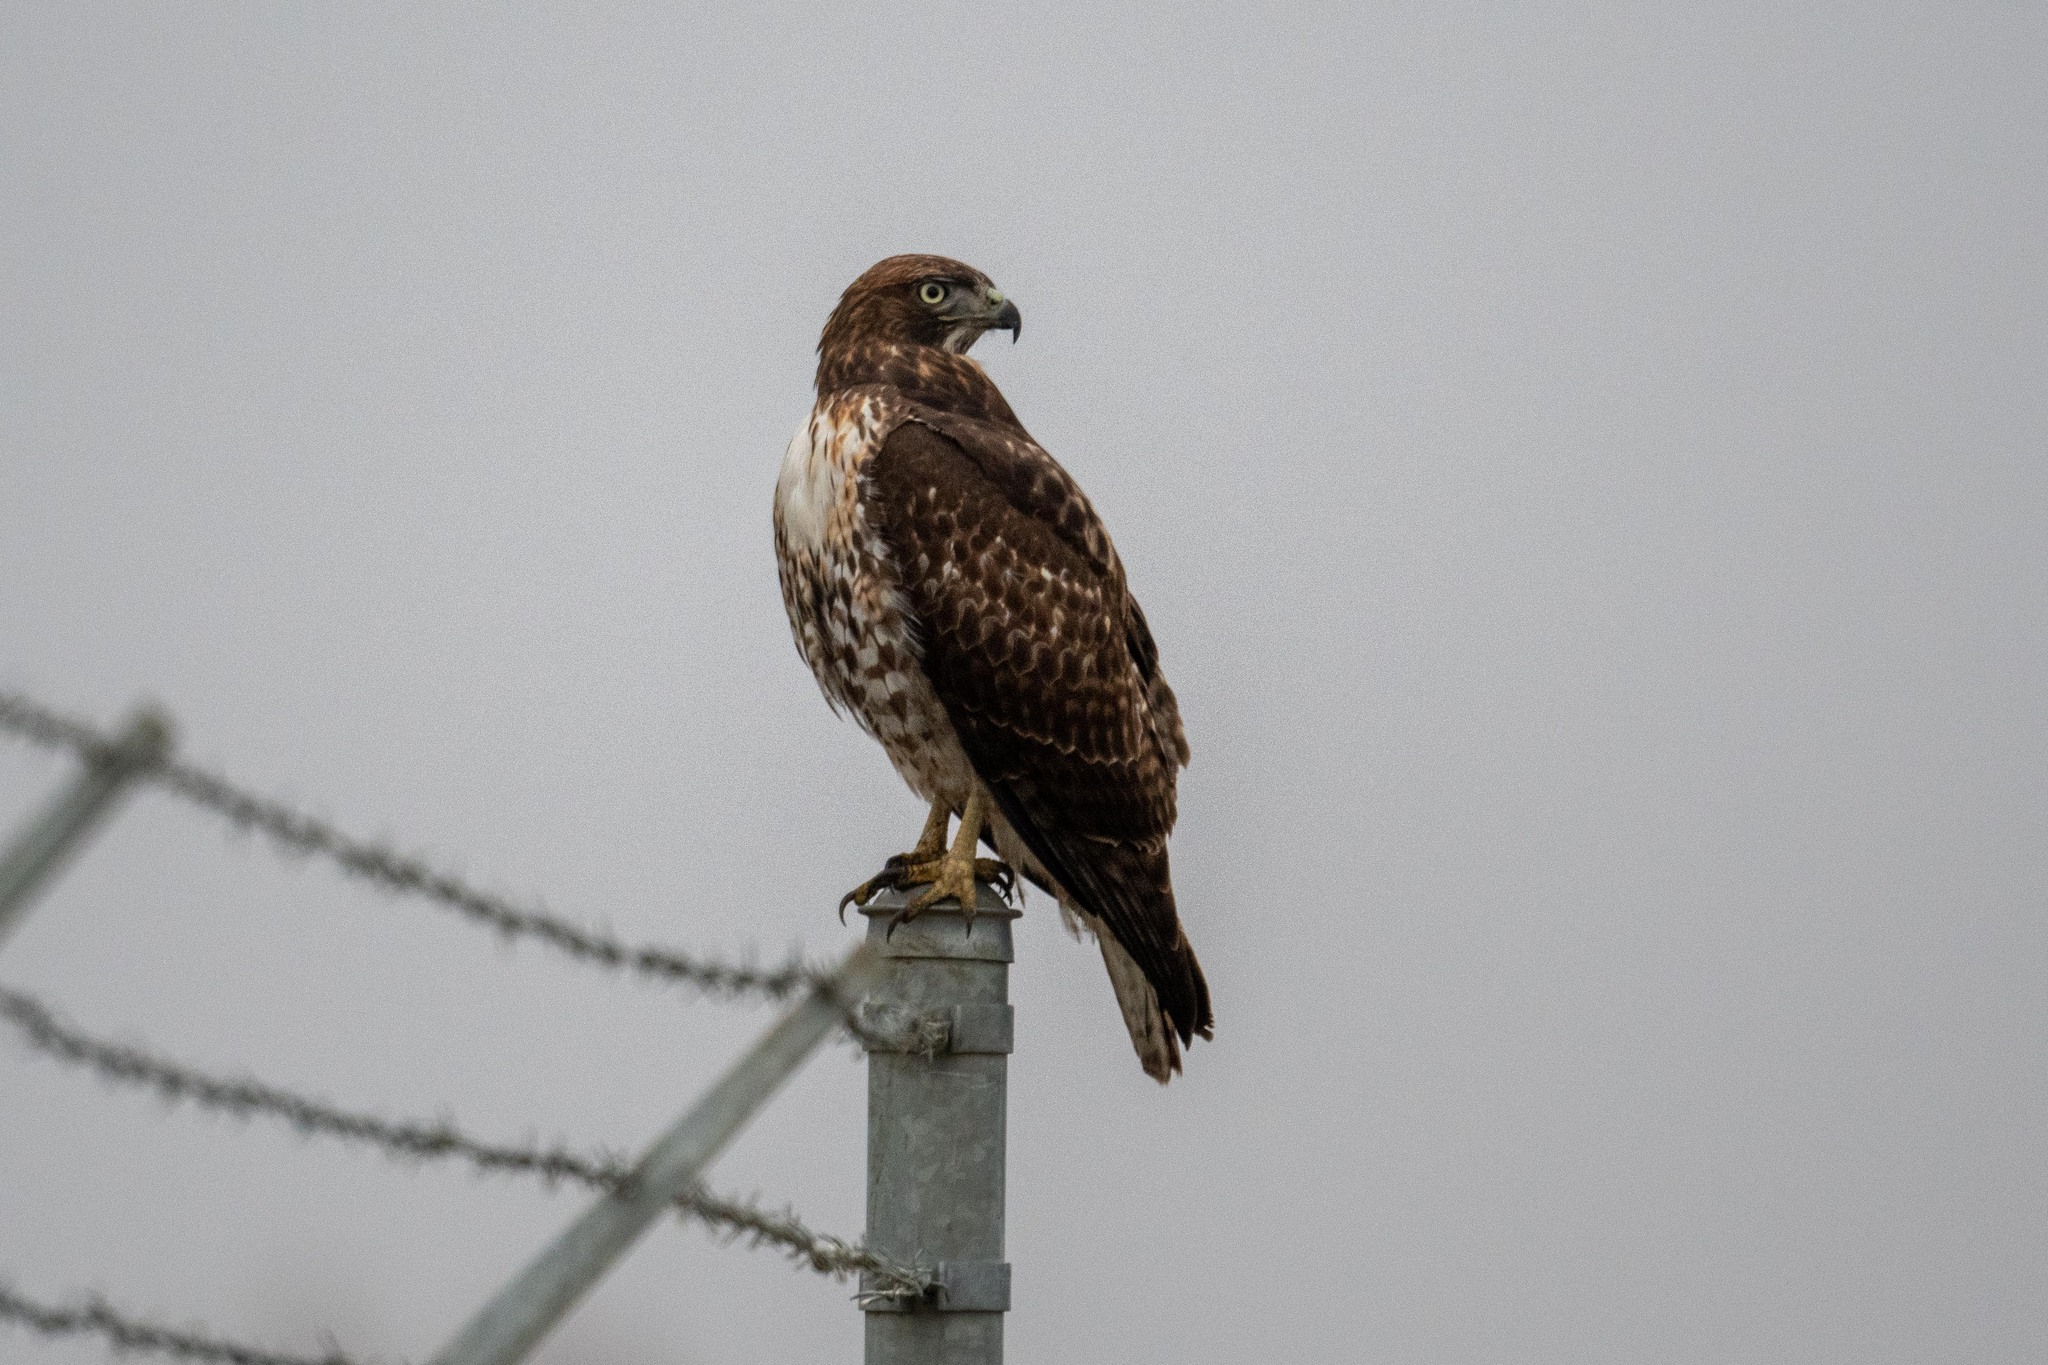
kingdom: Animalia
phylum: Chordata
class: Aves
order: Accipitriformes
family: Accipitridae
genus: Buteo
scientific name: Buteo jamaicensis
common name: Red-tailed hawk
